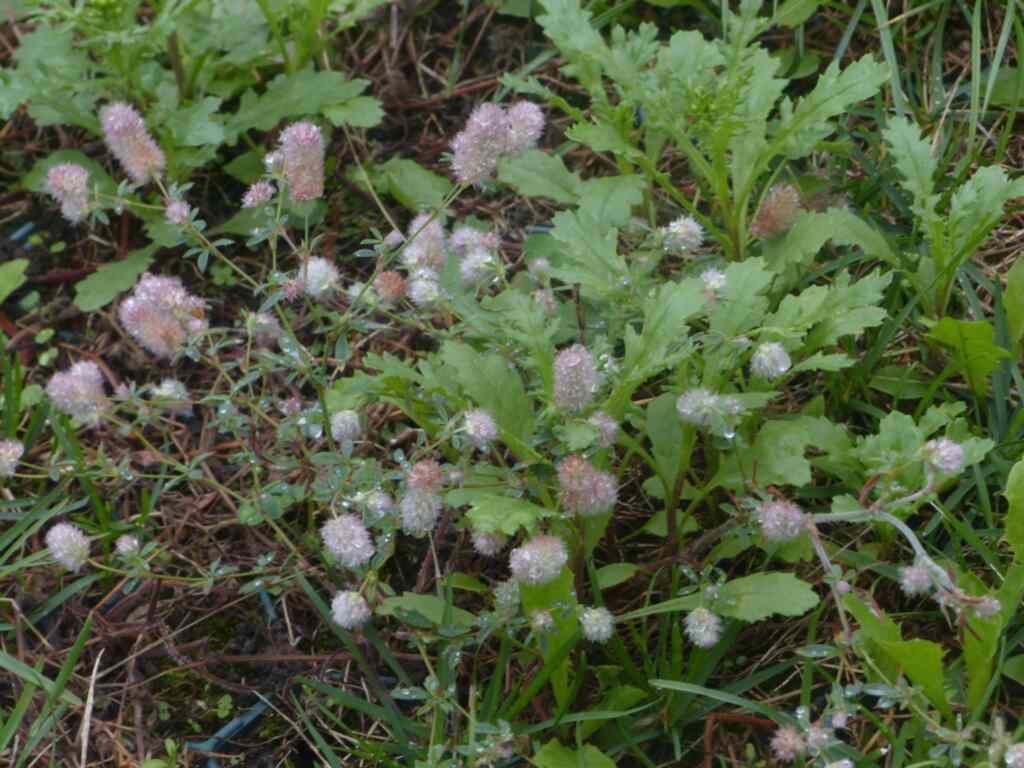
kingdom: Plantae
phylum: Tracheophyta
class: Magnoliopsida
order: Fabales
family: Fabaceae
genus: Trifolium
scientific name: Trifolium arvense
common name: Hare's-foot clover
